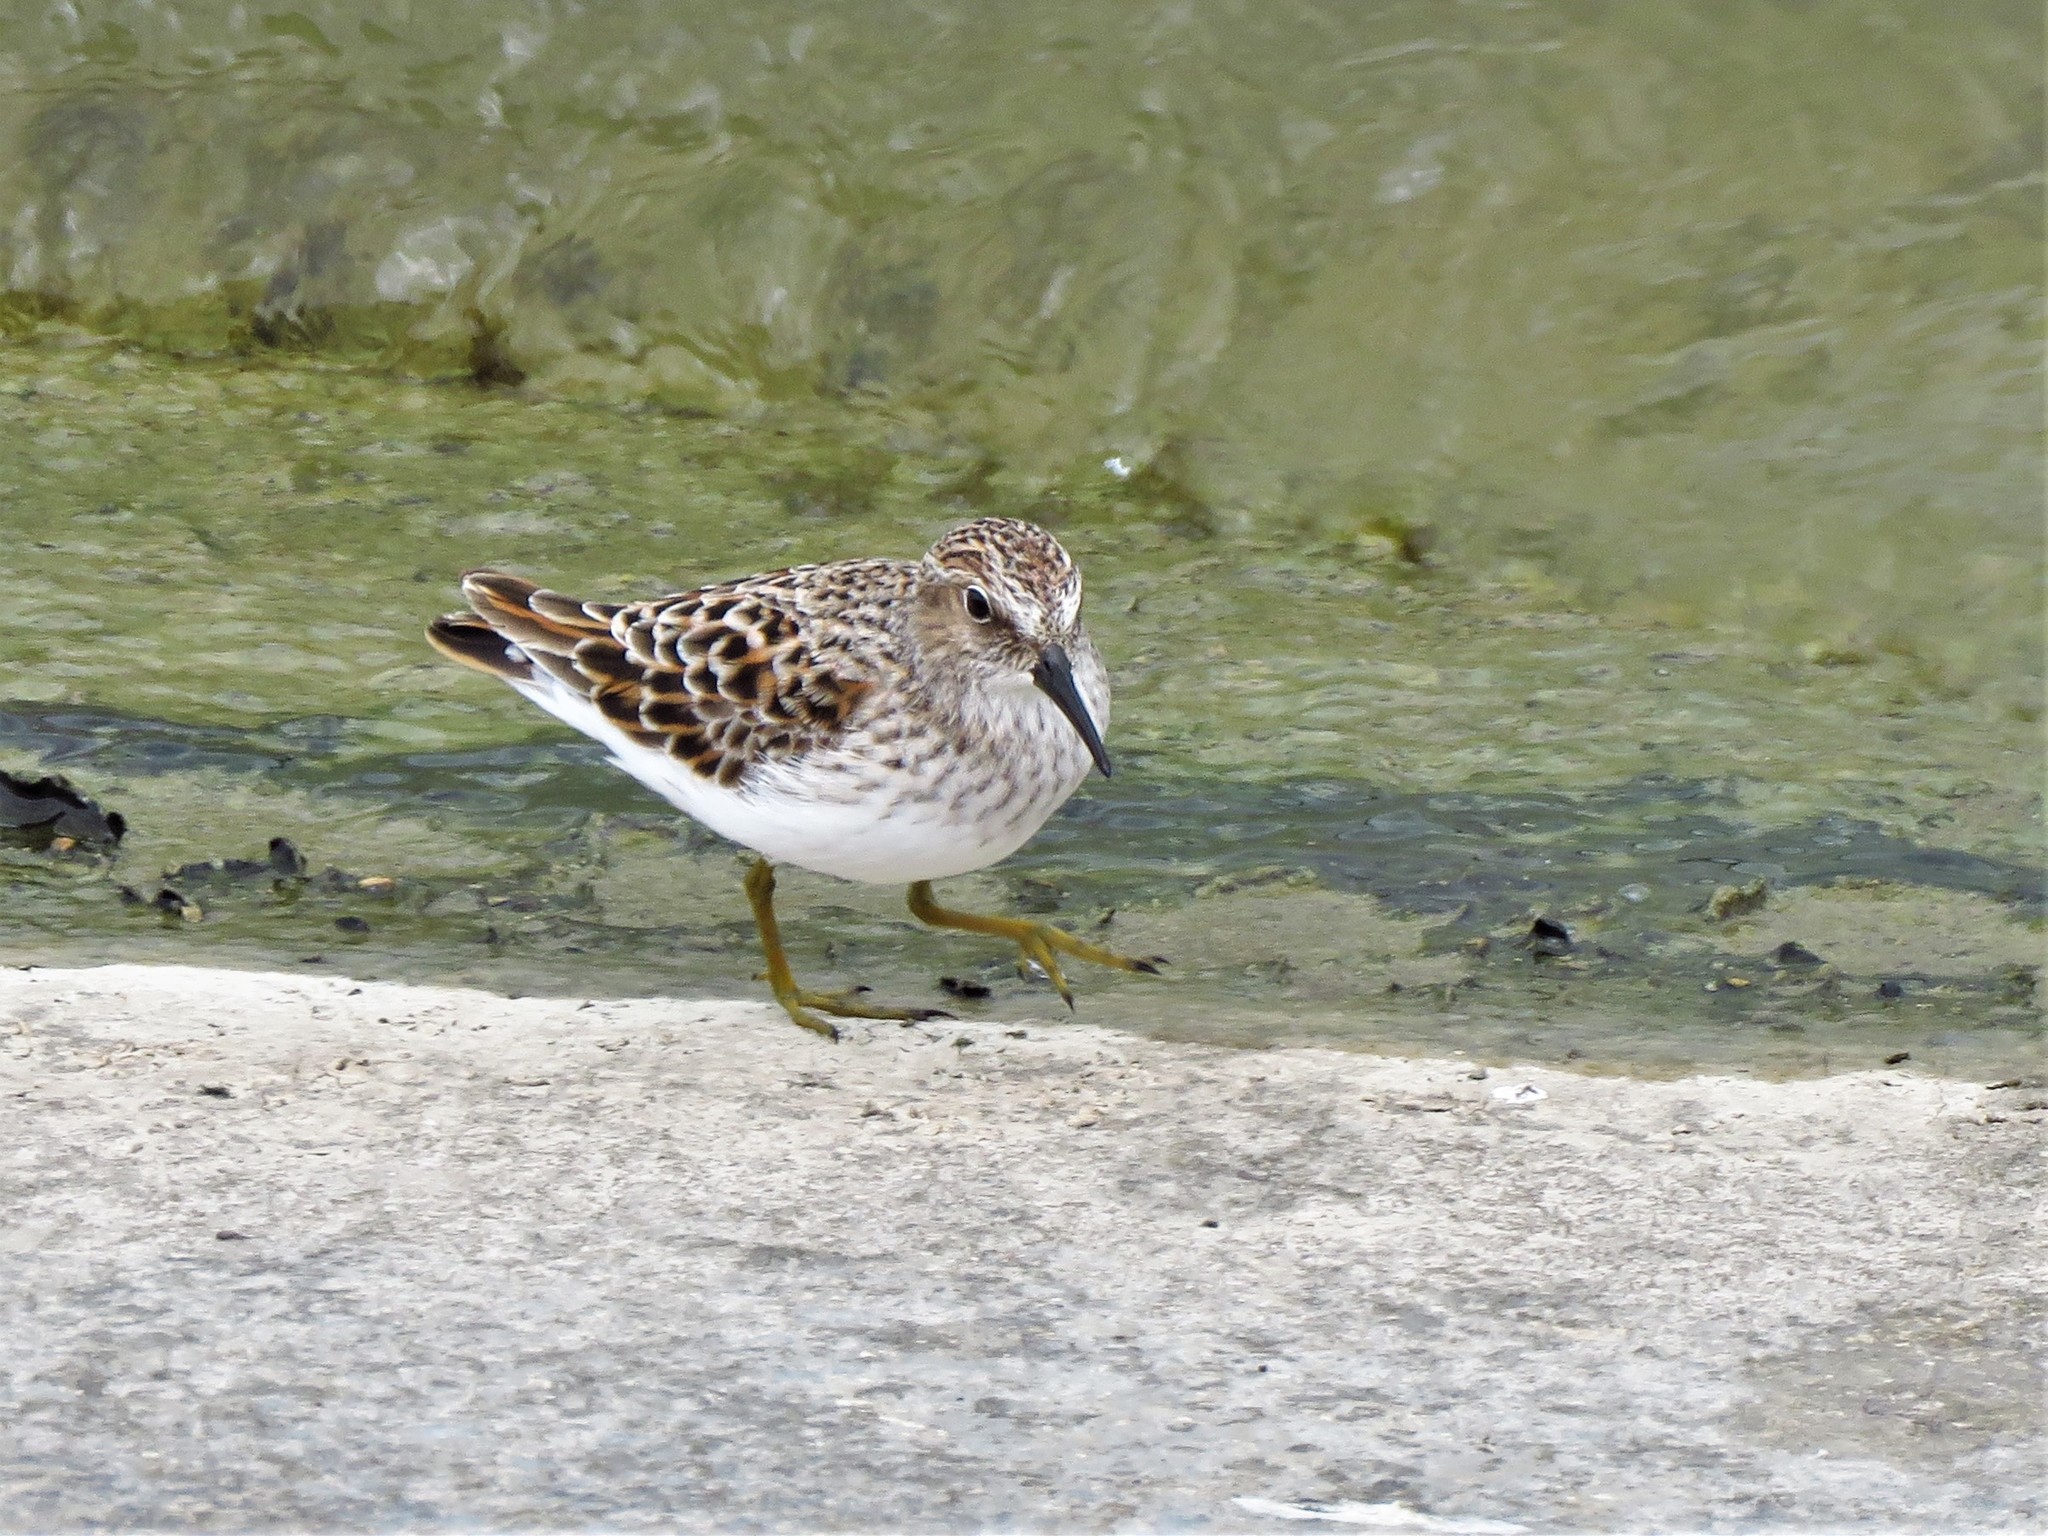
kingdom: Animalia
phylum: Chordata
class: Aves
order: Charadriiformes
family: Scolopacidae
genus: Calidris
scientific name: Calidris minutilla
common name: Least sandpiper
